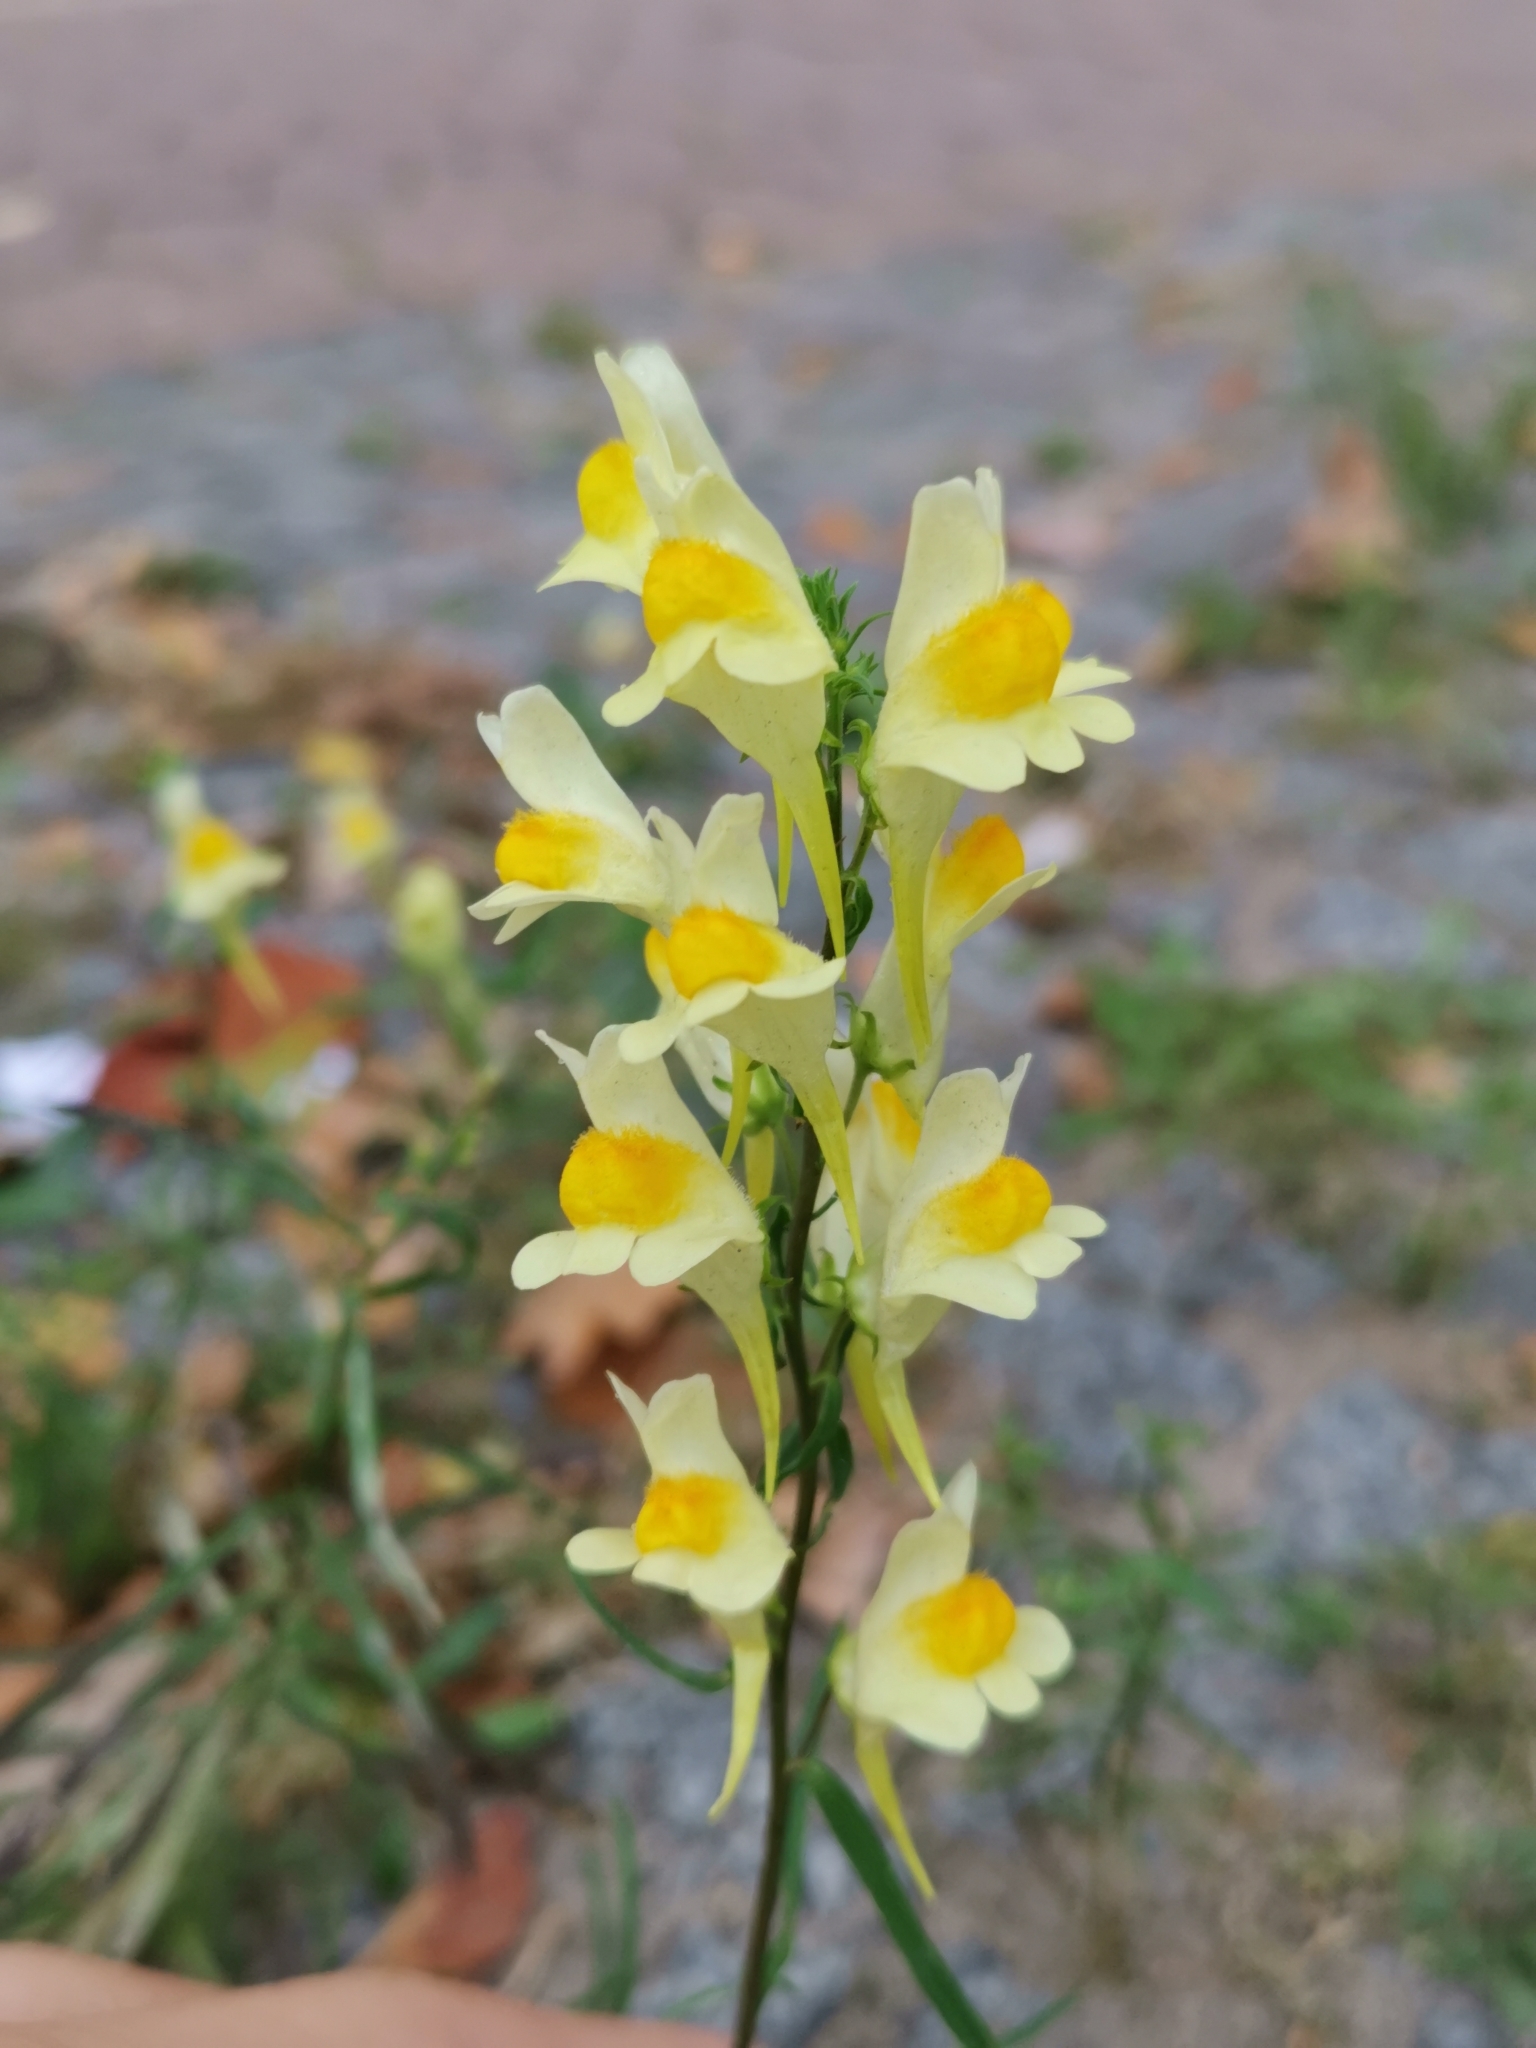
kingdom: Plantae
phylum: Tracheophyta
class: Magnoliopsida
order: Lamiales
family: Plantaginaceae
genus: Linaria
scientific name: Linaria vulgaris
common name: Butter and eggs
